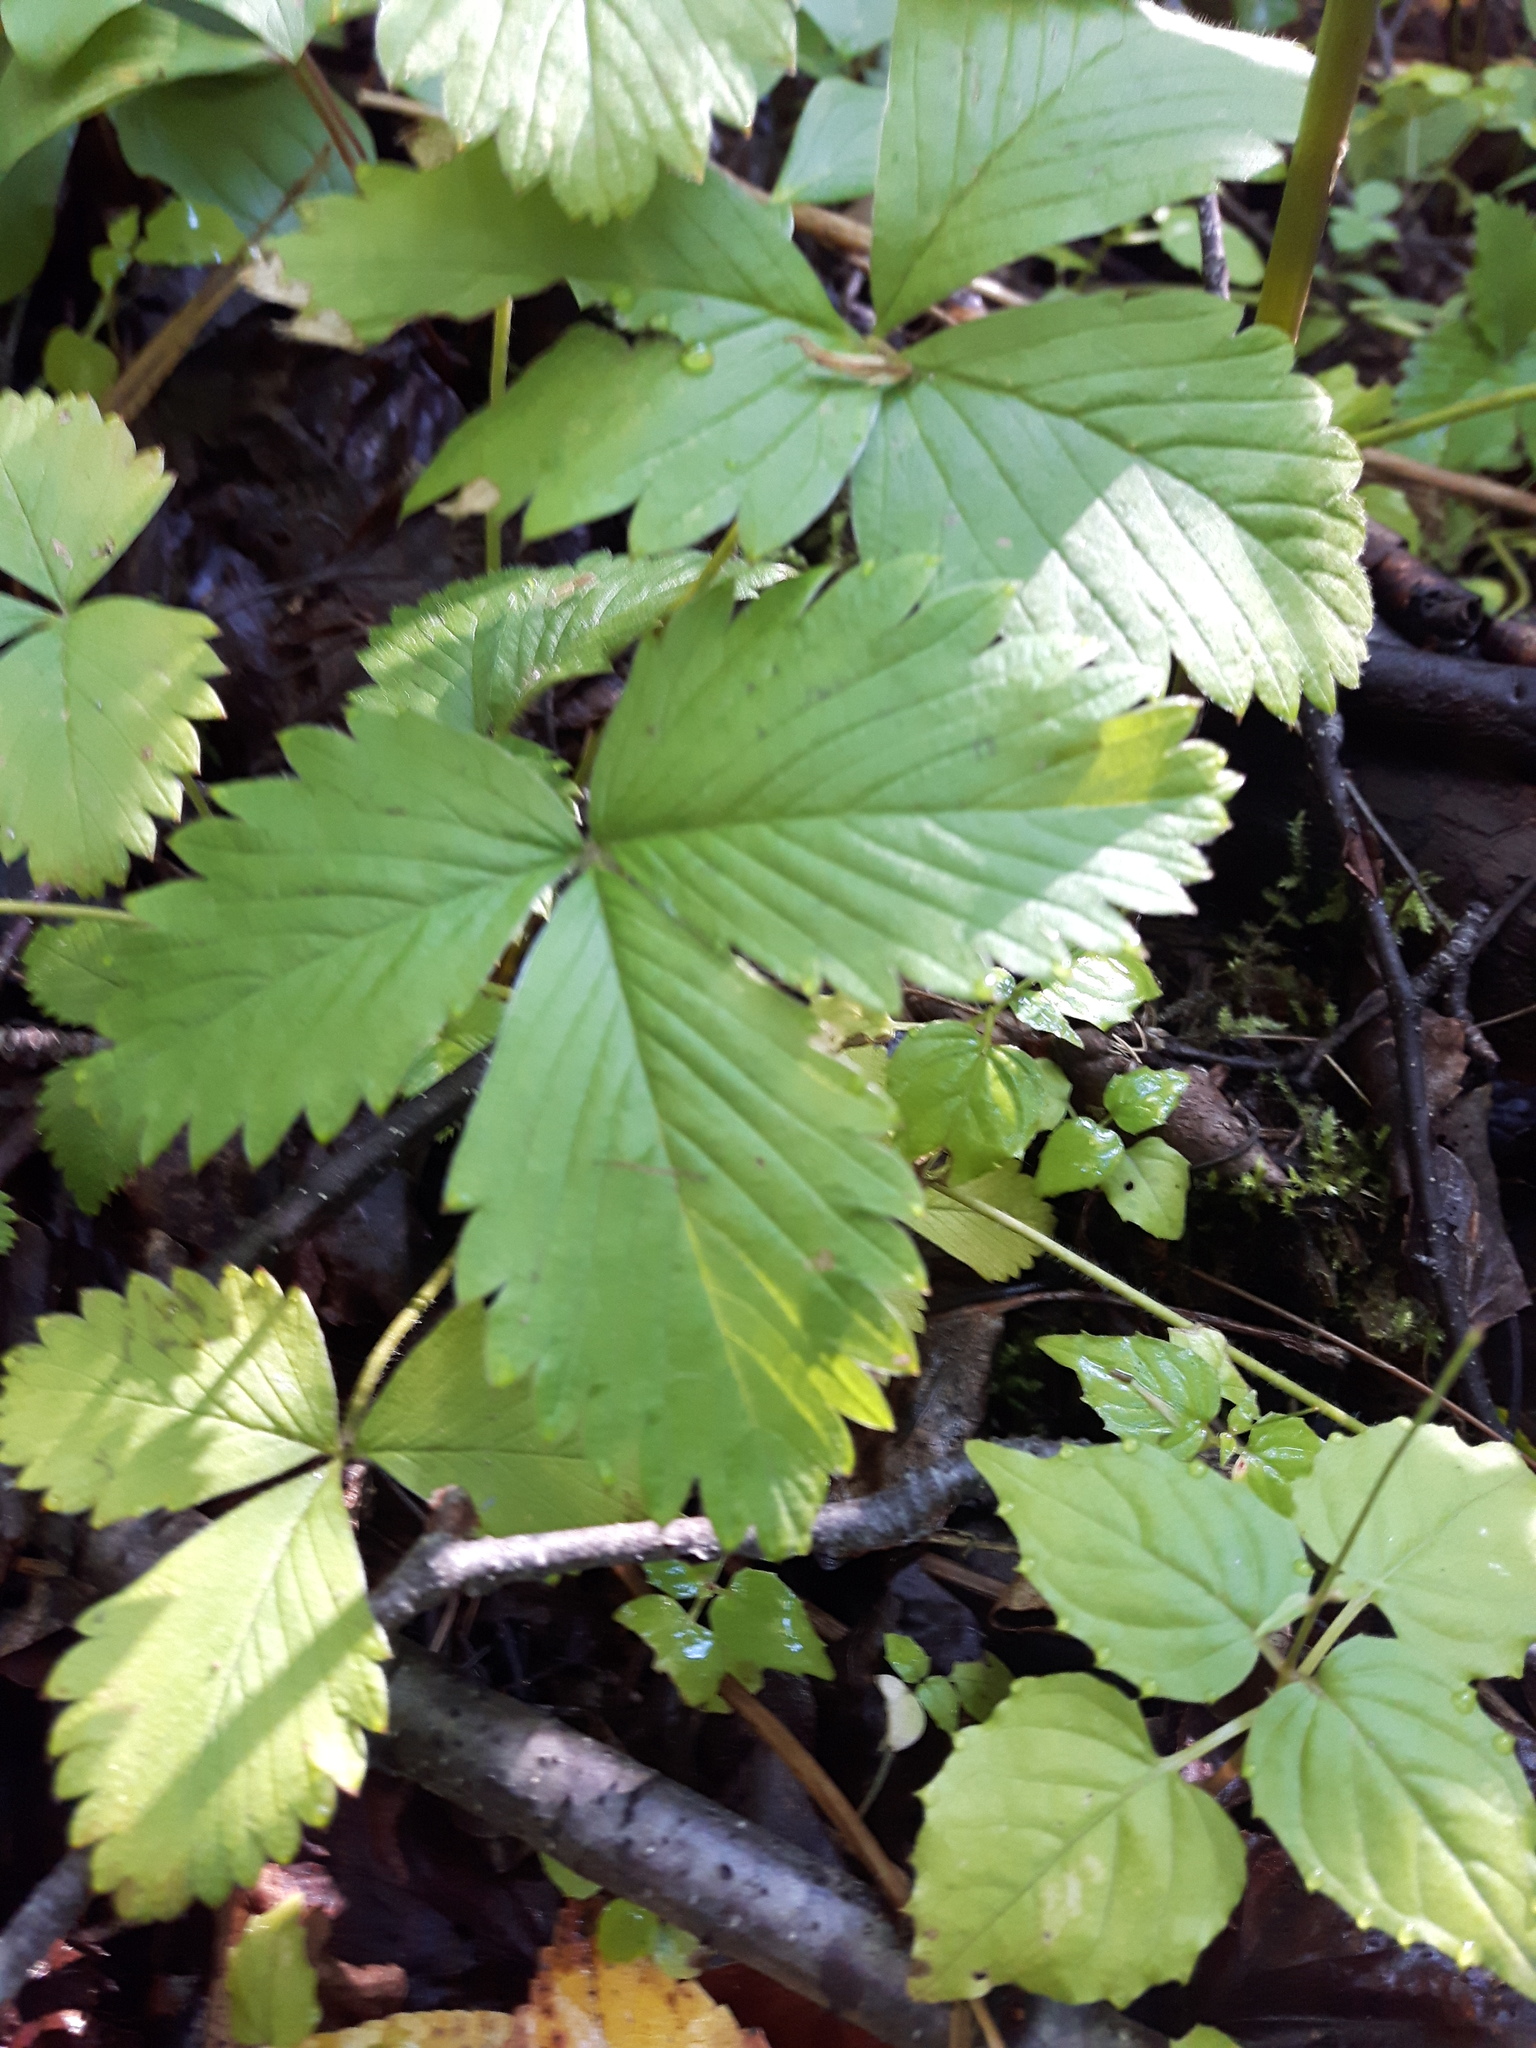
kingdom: Plantae
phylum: Tracheophyta
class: Magnoliopsida
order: Rosales
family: Rosaceae
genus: Fragaria
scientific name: Fragaria vesca
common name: Wild strawberry
